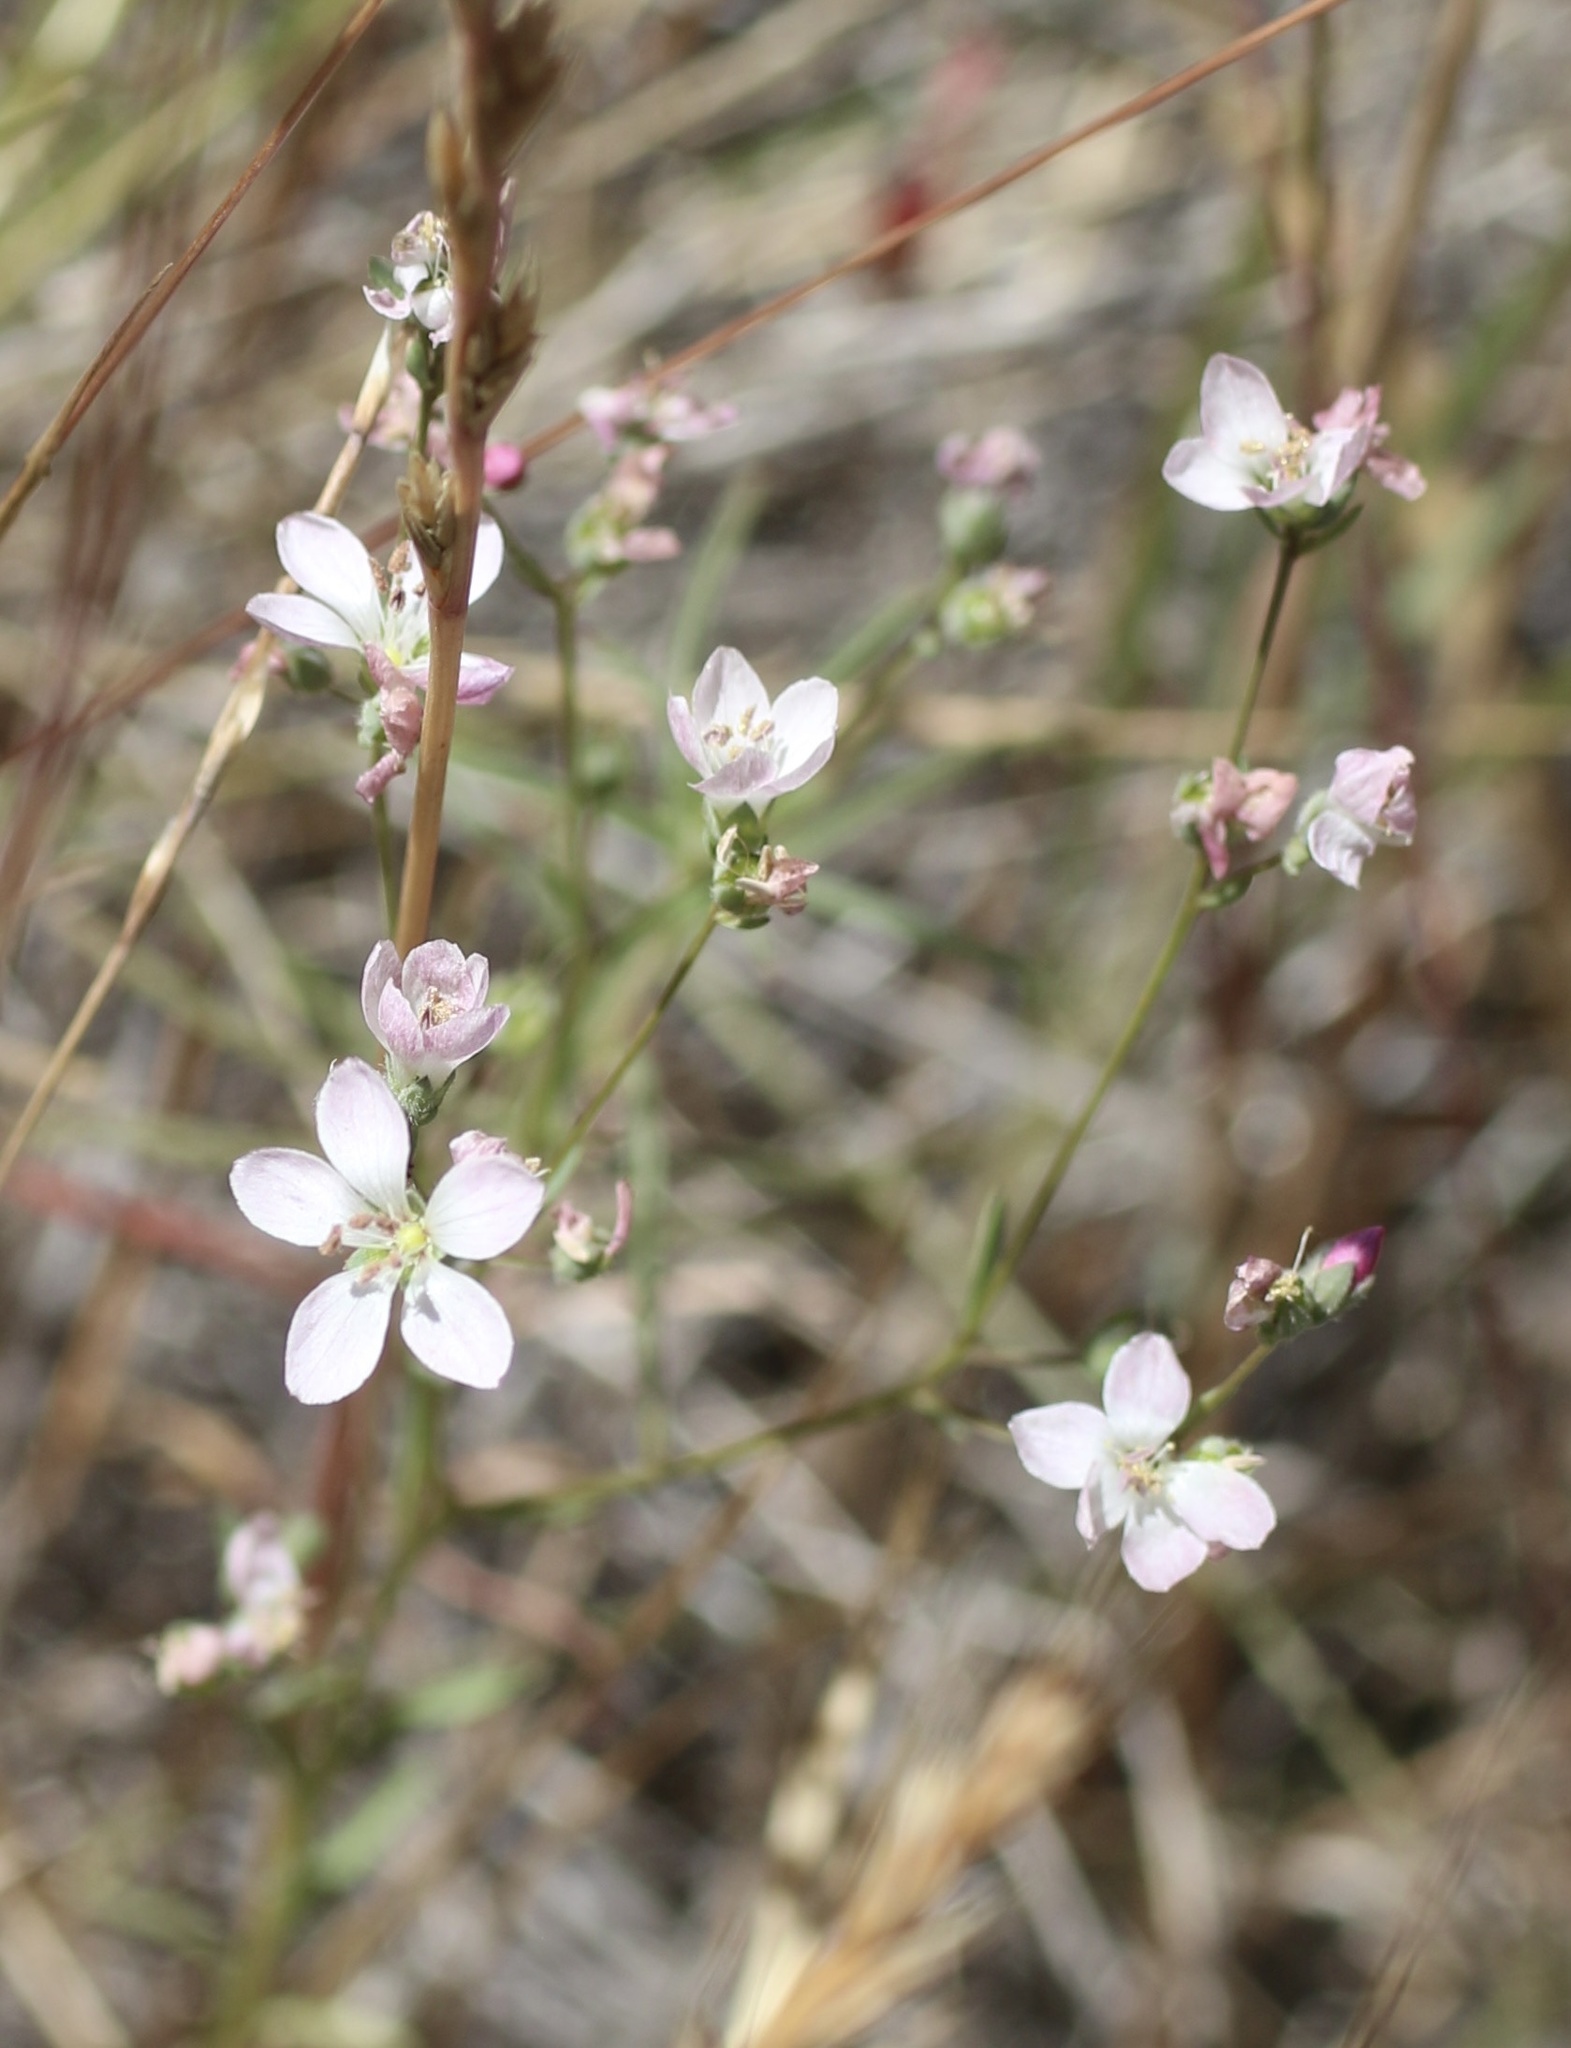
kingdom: Plantae
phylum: Tracheophyta
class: Magnoliopsida
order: Malpighiales
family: Linaceae
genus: Hesperolinon
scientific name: Hesperolinon congestum
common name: Marin dwarf-flax
